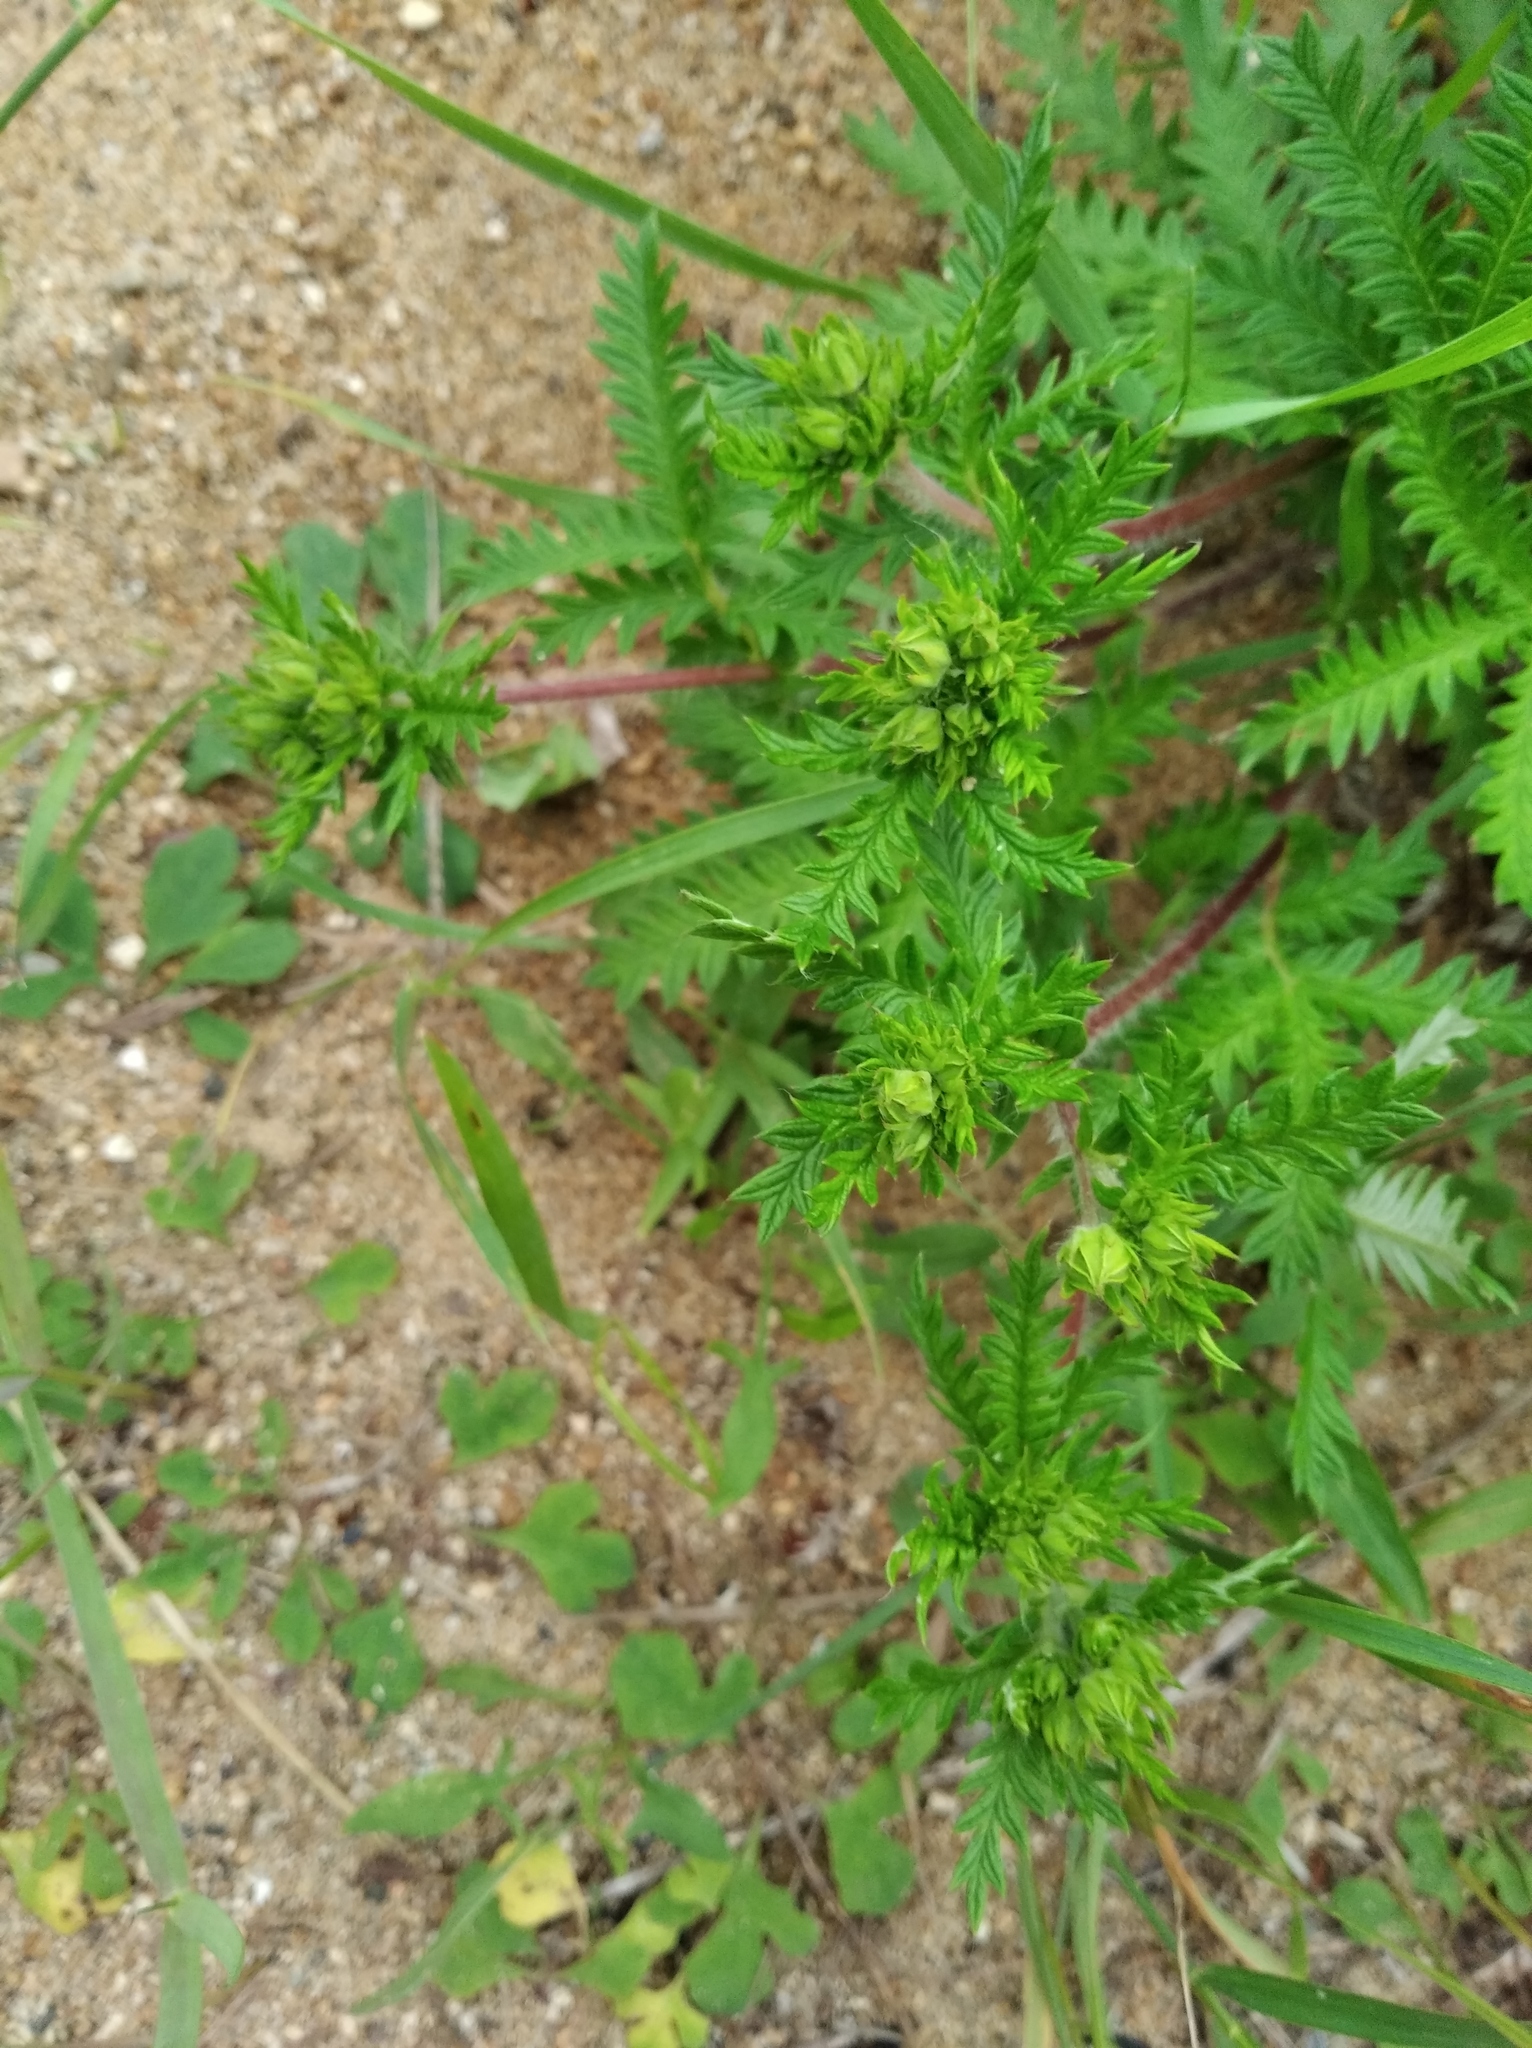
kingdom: Plantae
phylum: Tracheophyta
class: Magnoliopsida
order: Rosales
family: Rosaceae
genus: Potentilla
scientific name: Potentilla chinensis
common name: Chinese cinquefoil
